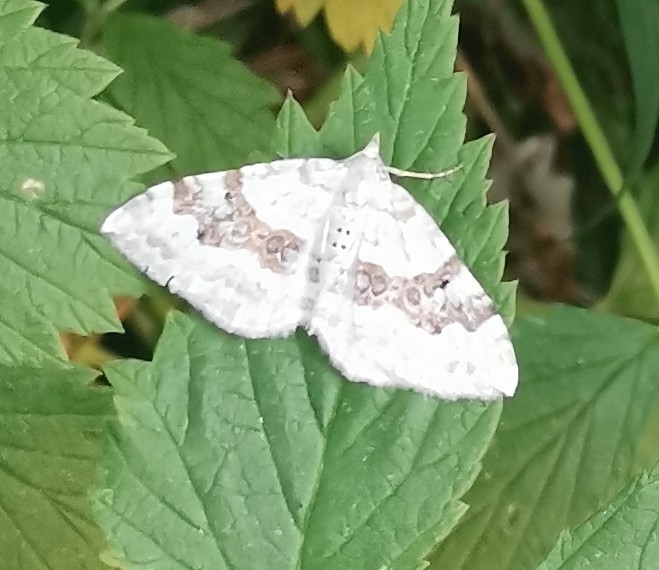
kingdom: Animalia
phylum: Arthropoda
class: Insecta
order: Lepidoptera
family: Geometridae
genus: Xanthorhoe
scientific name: Xanthorhoe montanata
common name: Silver-ground carpet
